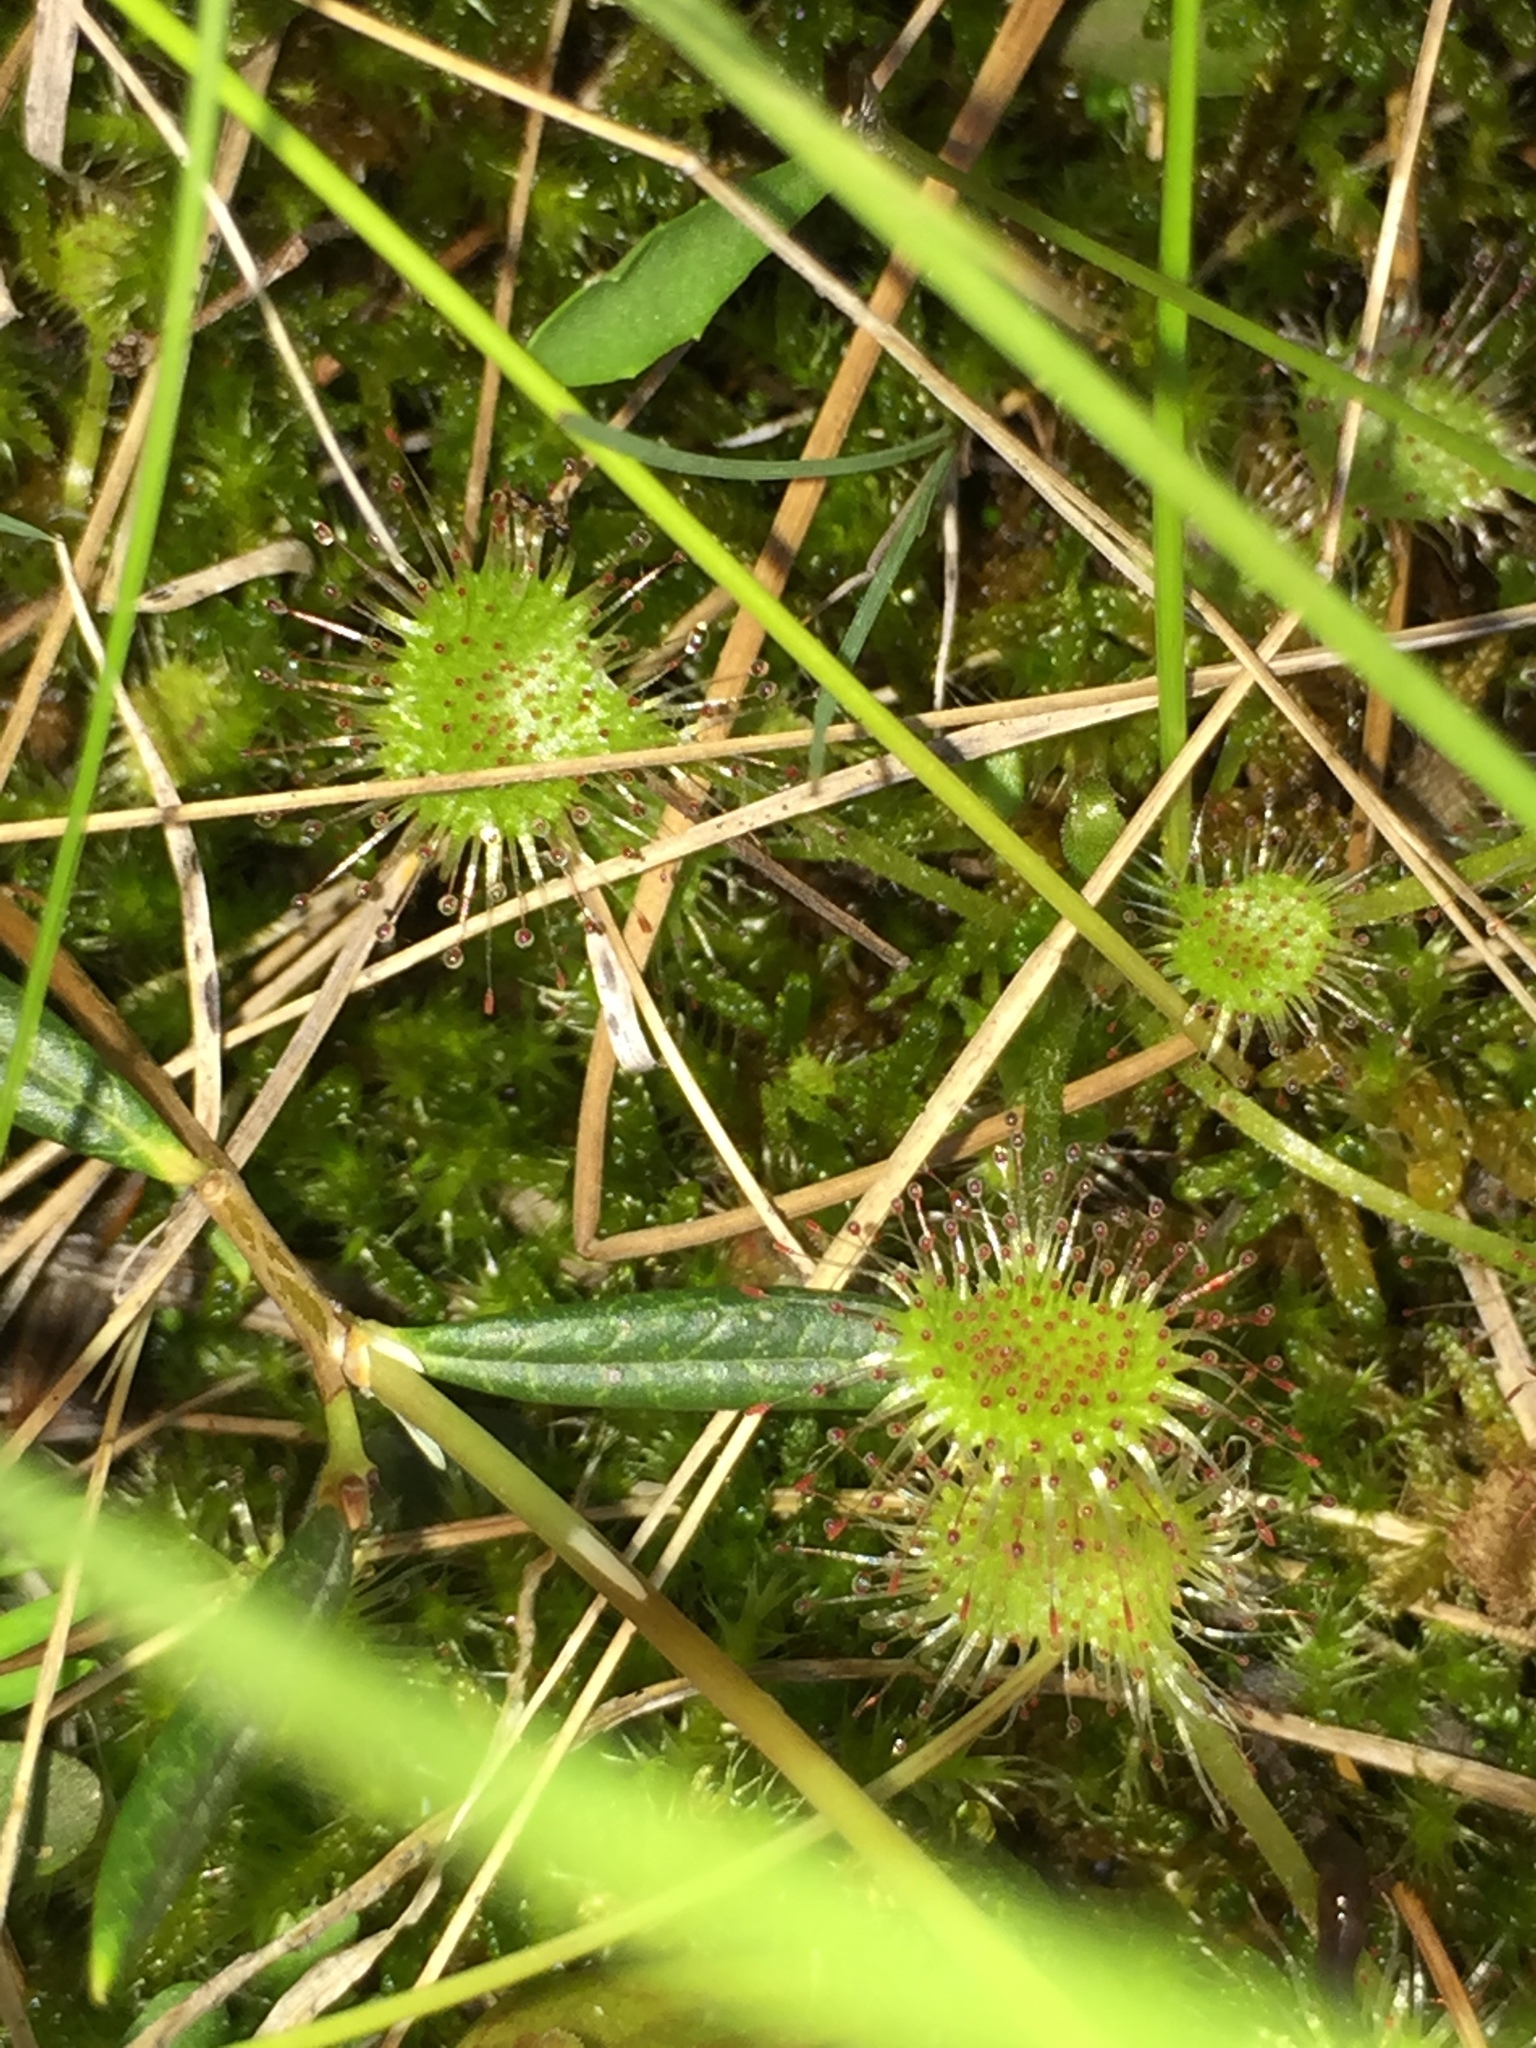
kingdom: Plantae
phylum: Tracheophyta
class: Magnoliopsida
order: Caryophyllales
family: Droseraceae
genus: Drosera
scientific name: Drosera rotundifolia
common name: Round-leaved sundew
